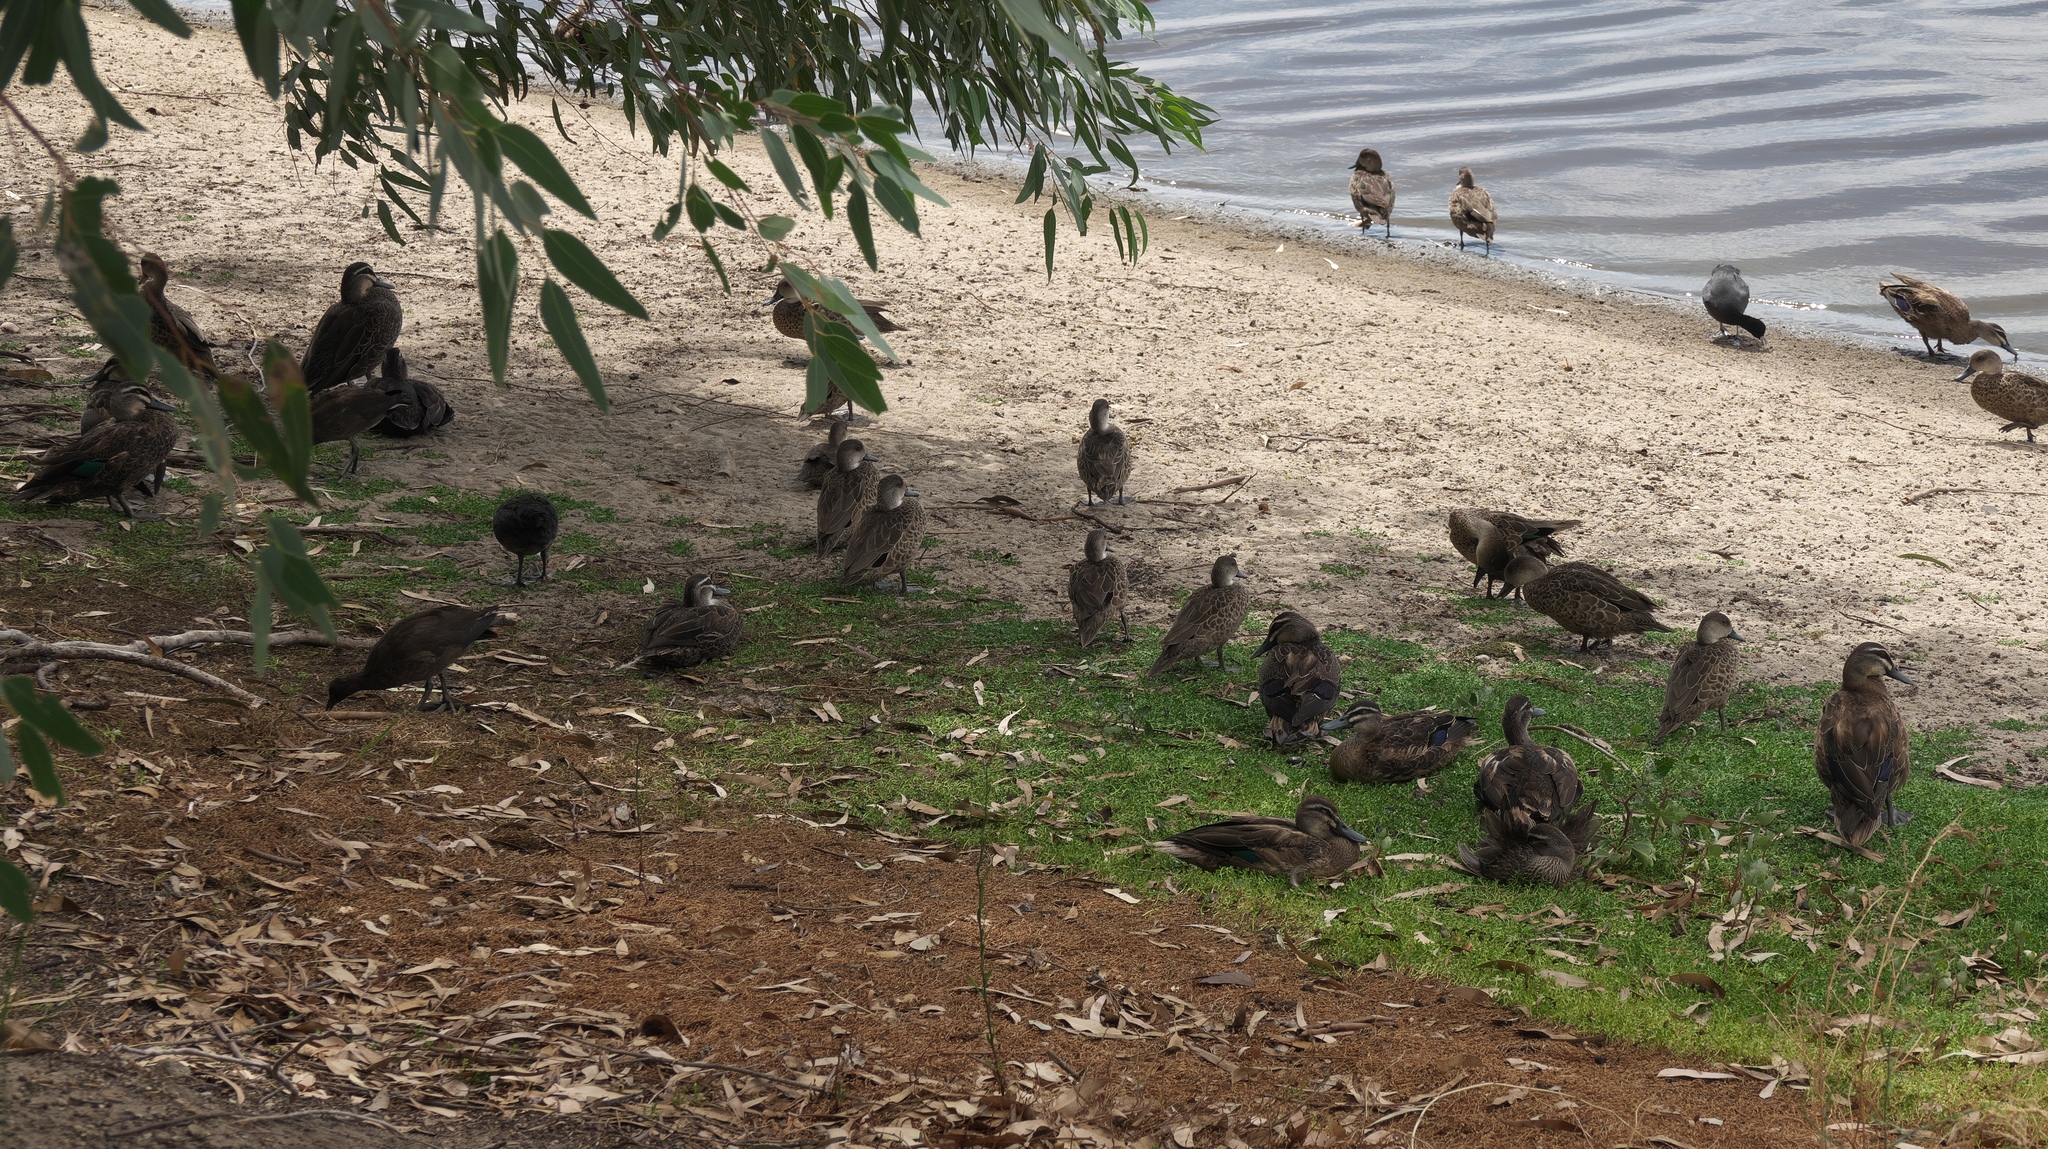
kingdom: Animalia
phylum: Chordata
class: Aves
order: Anseriformes
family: Anatidae
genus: Anas
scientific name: Anas superciliosa
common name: Pacific black duck
